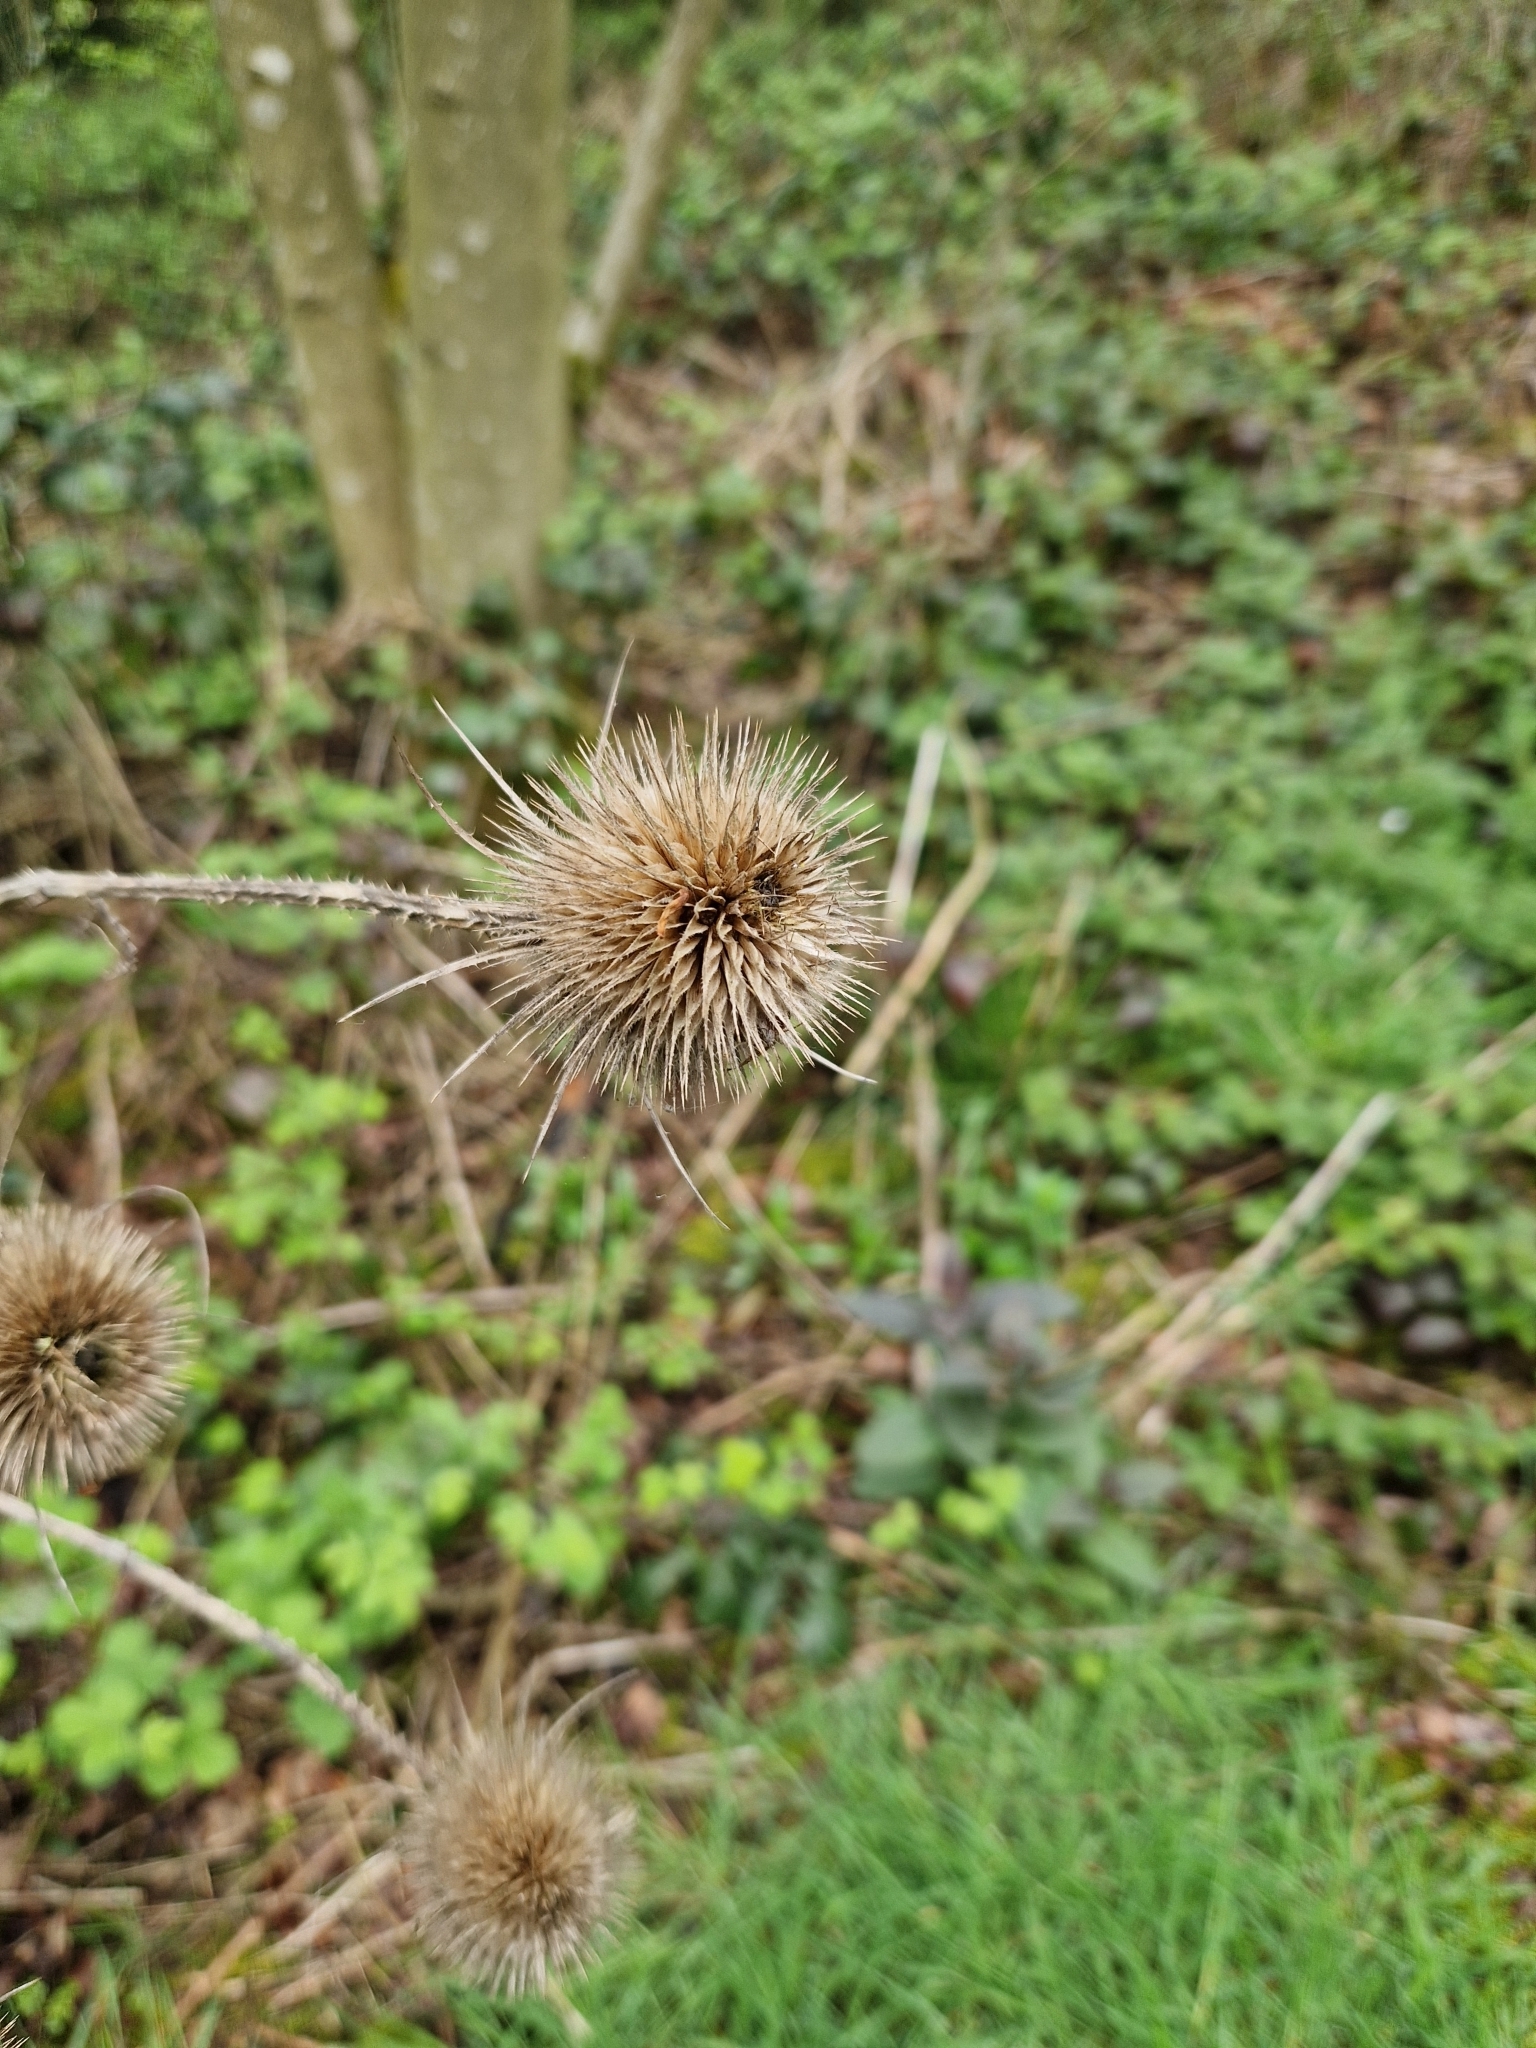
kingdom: Plantae
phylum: Tracheophyta
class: Magnoliopsida
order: Dipsacales
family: Caprifoliaceae
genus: Dipsacus
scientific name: Dipsacus fullonum
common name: Teasel
